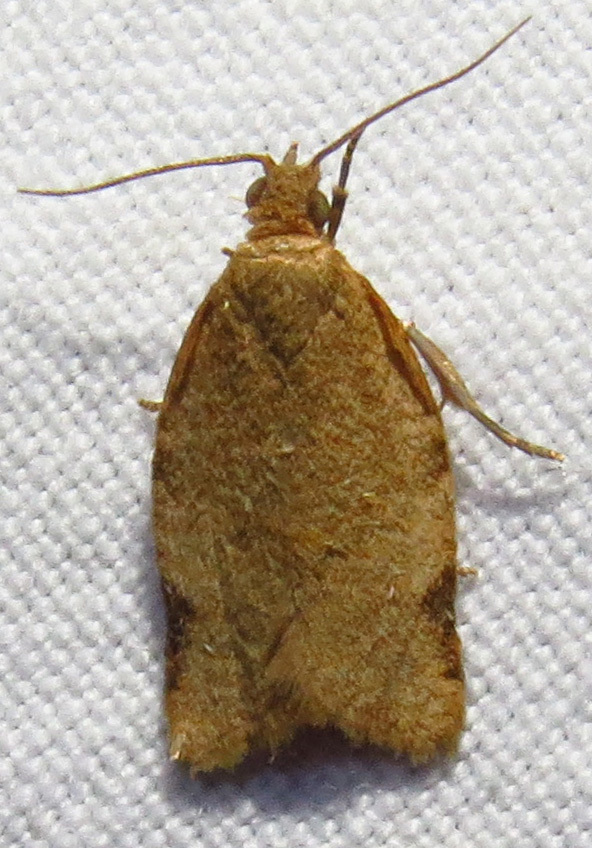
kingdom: Animalia
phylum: Arthropoda
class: Insecta
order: Lepidoptera
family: Tortricidae
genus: Clepsis
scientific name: Clepsis virescana
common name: Greenish apple moth
